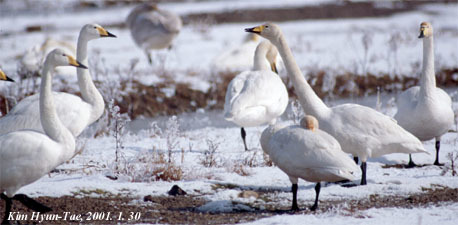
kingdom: Animalia
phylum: Chordata
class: Aves
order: Anseriformes
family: Anatidae
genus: Cygnus
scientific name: Cygnus cygnus
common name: Whooper swan
